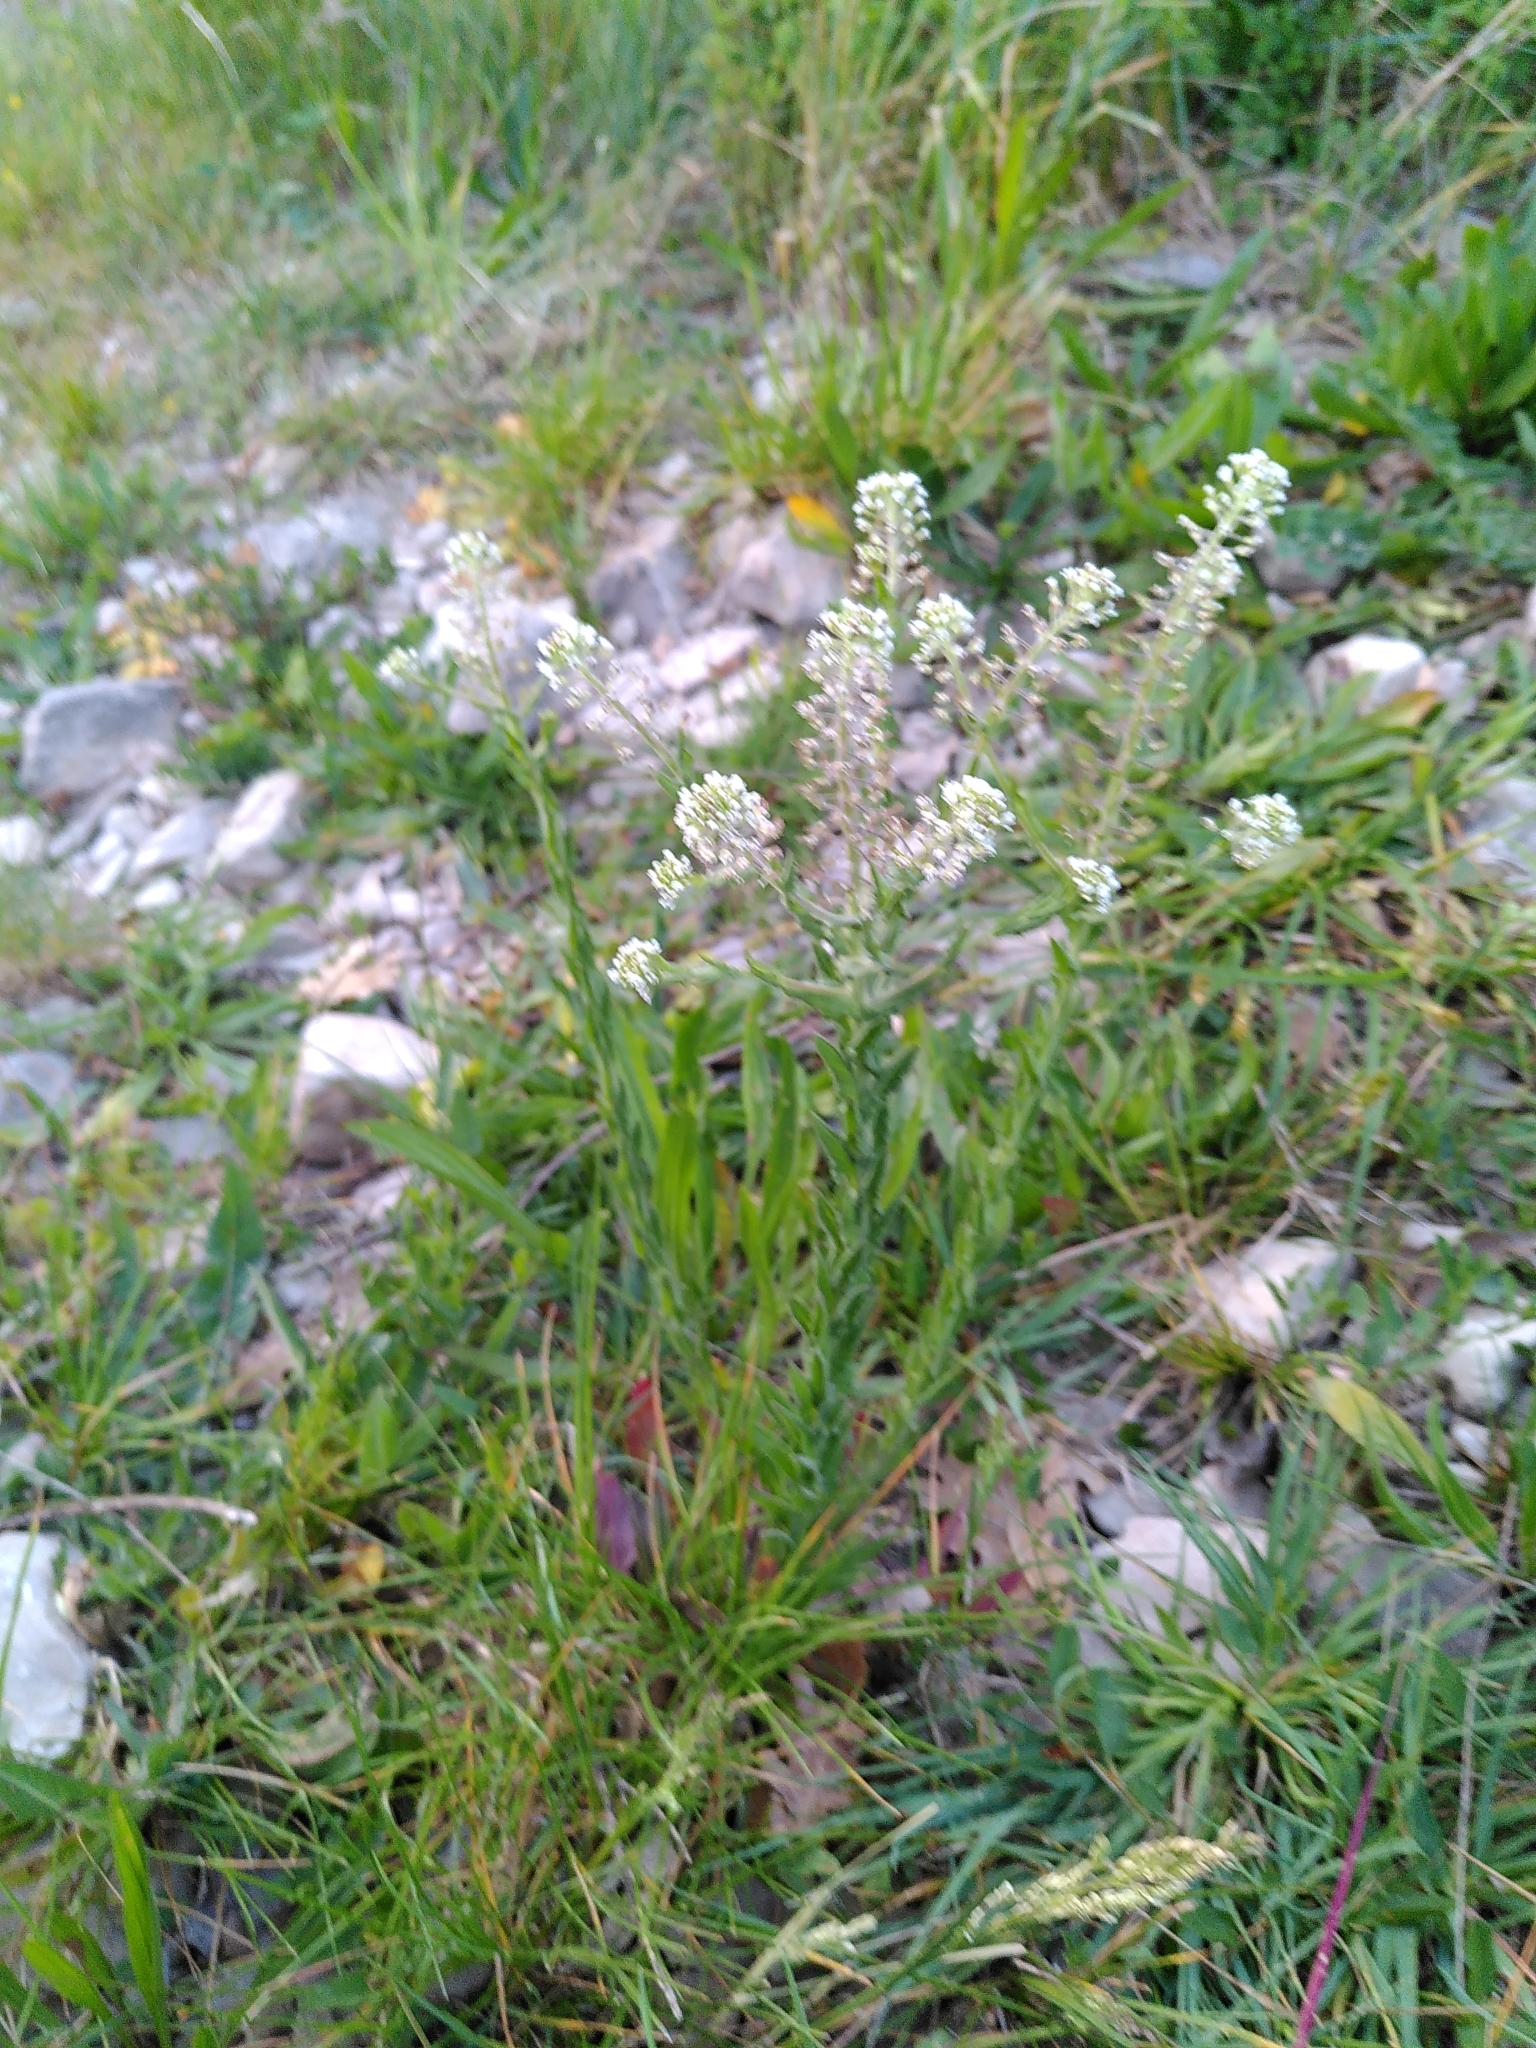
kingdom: Plantae
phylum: Tracheophyta
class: Magnoliopsida
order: Brassicales
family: Brassicaceae
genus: Lepidium
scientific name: Lepidium campestre
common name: Field pepperwort
